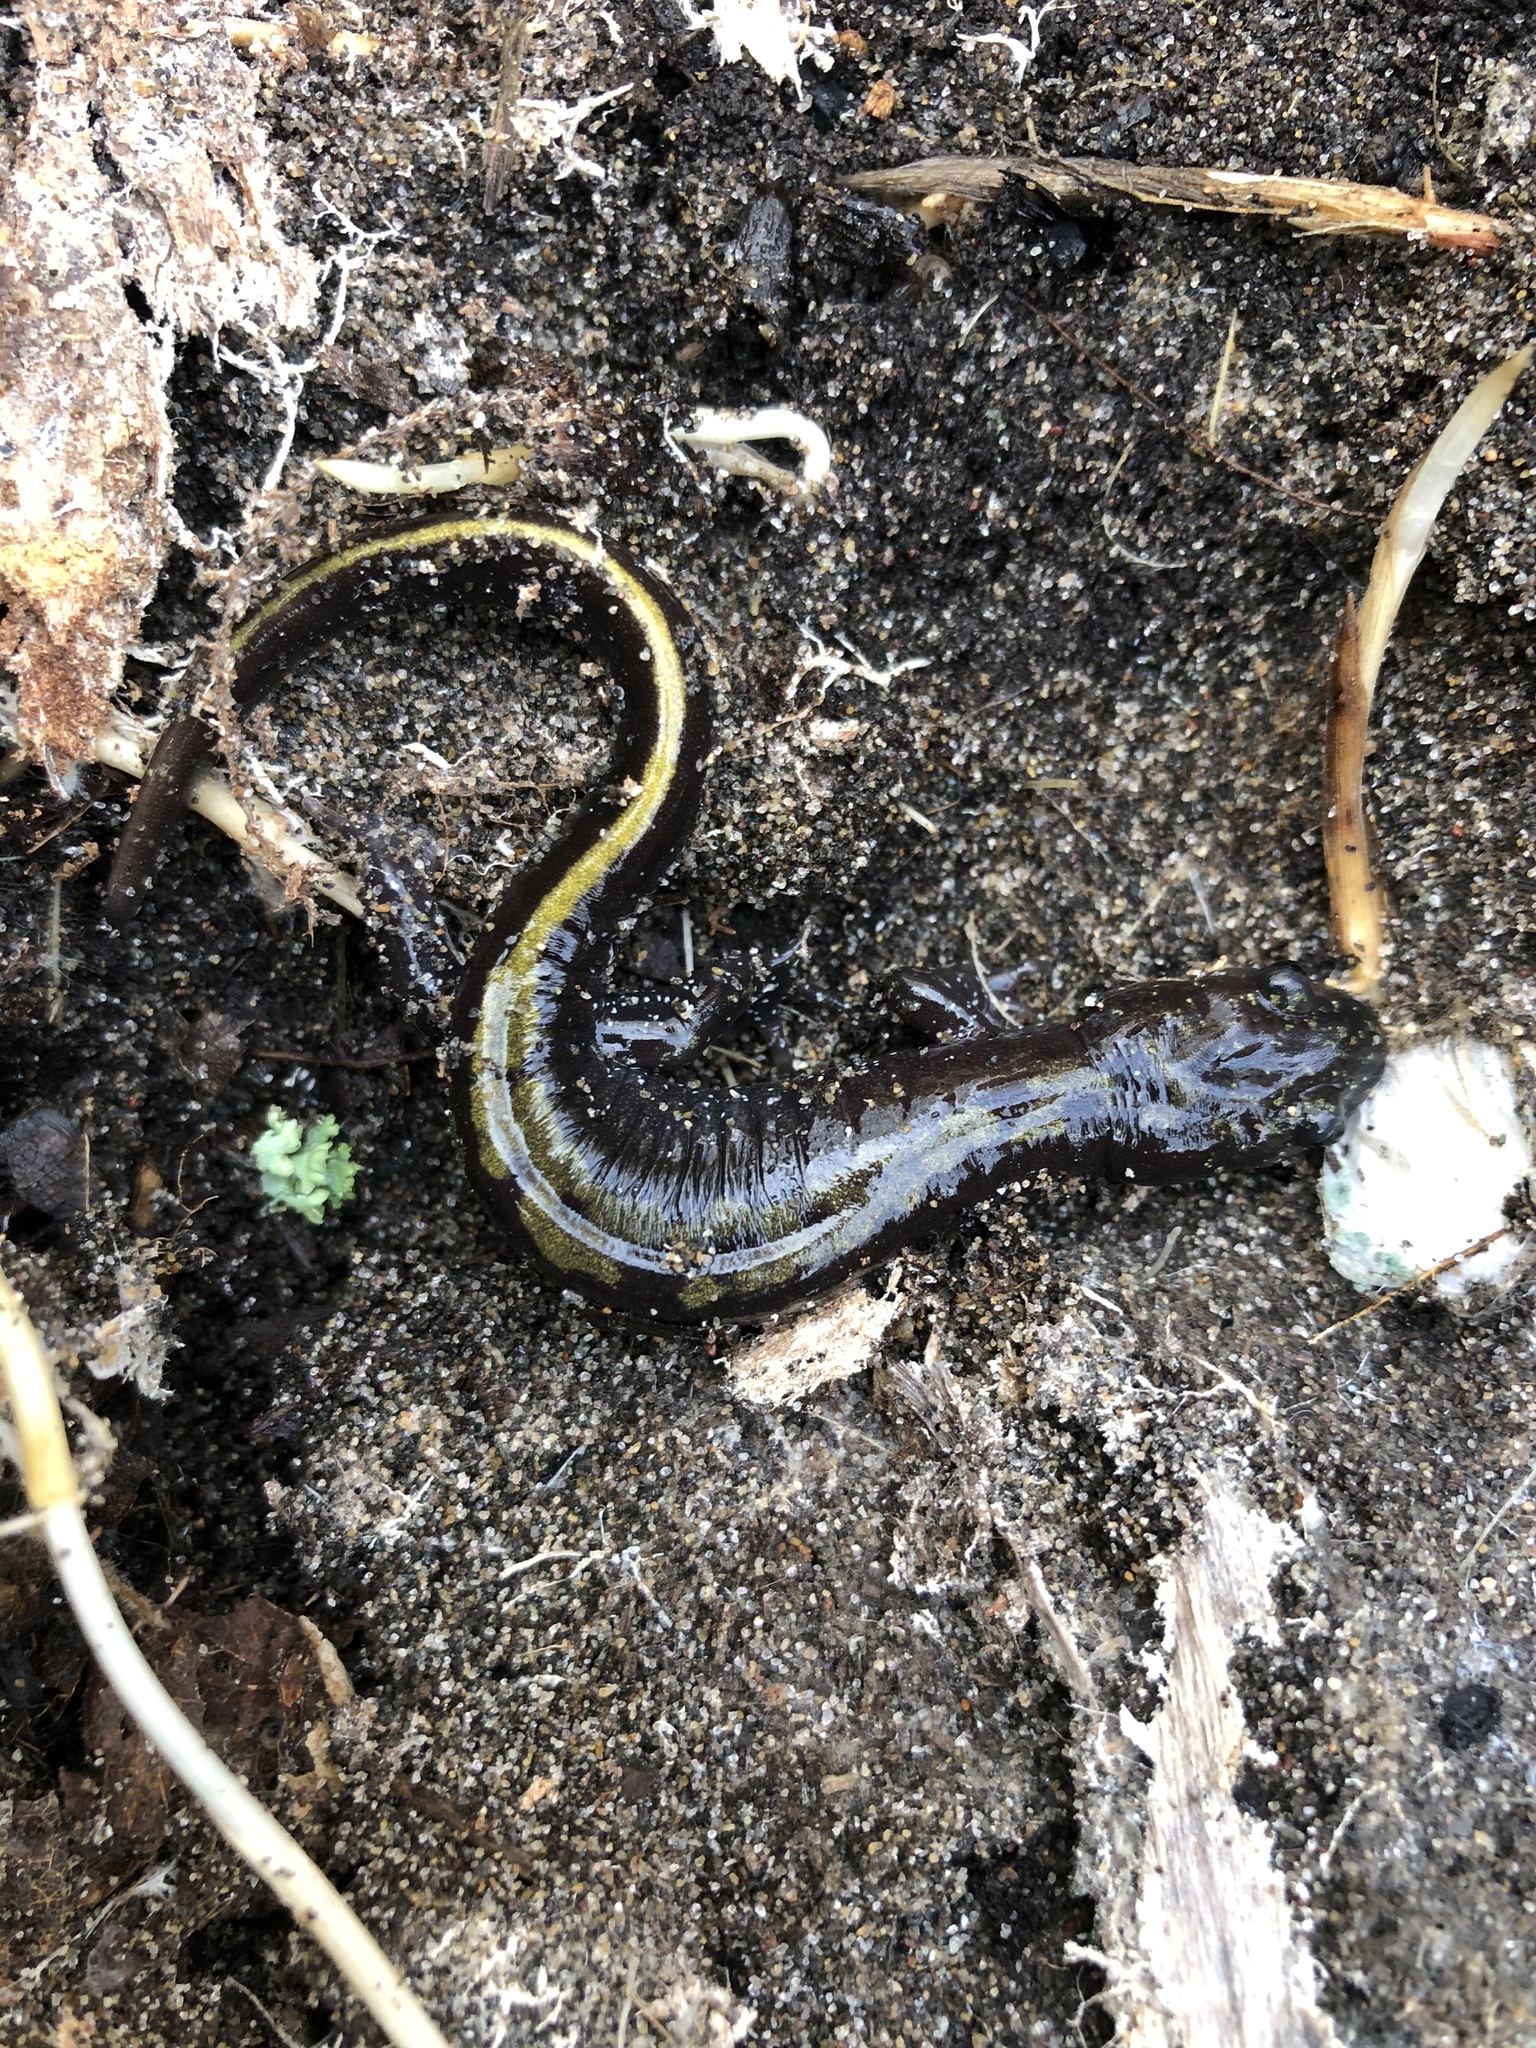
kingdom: Animalia
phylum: Chordata
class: Amphibia
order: Caudata
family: Ambystomatidae
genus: Ambystoma
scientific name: Ambystoma macrodactylum
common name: Long-toed salamander
